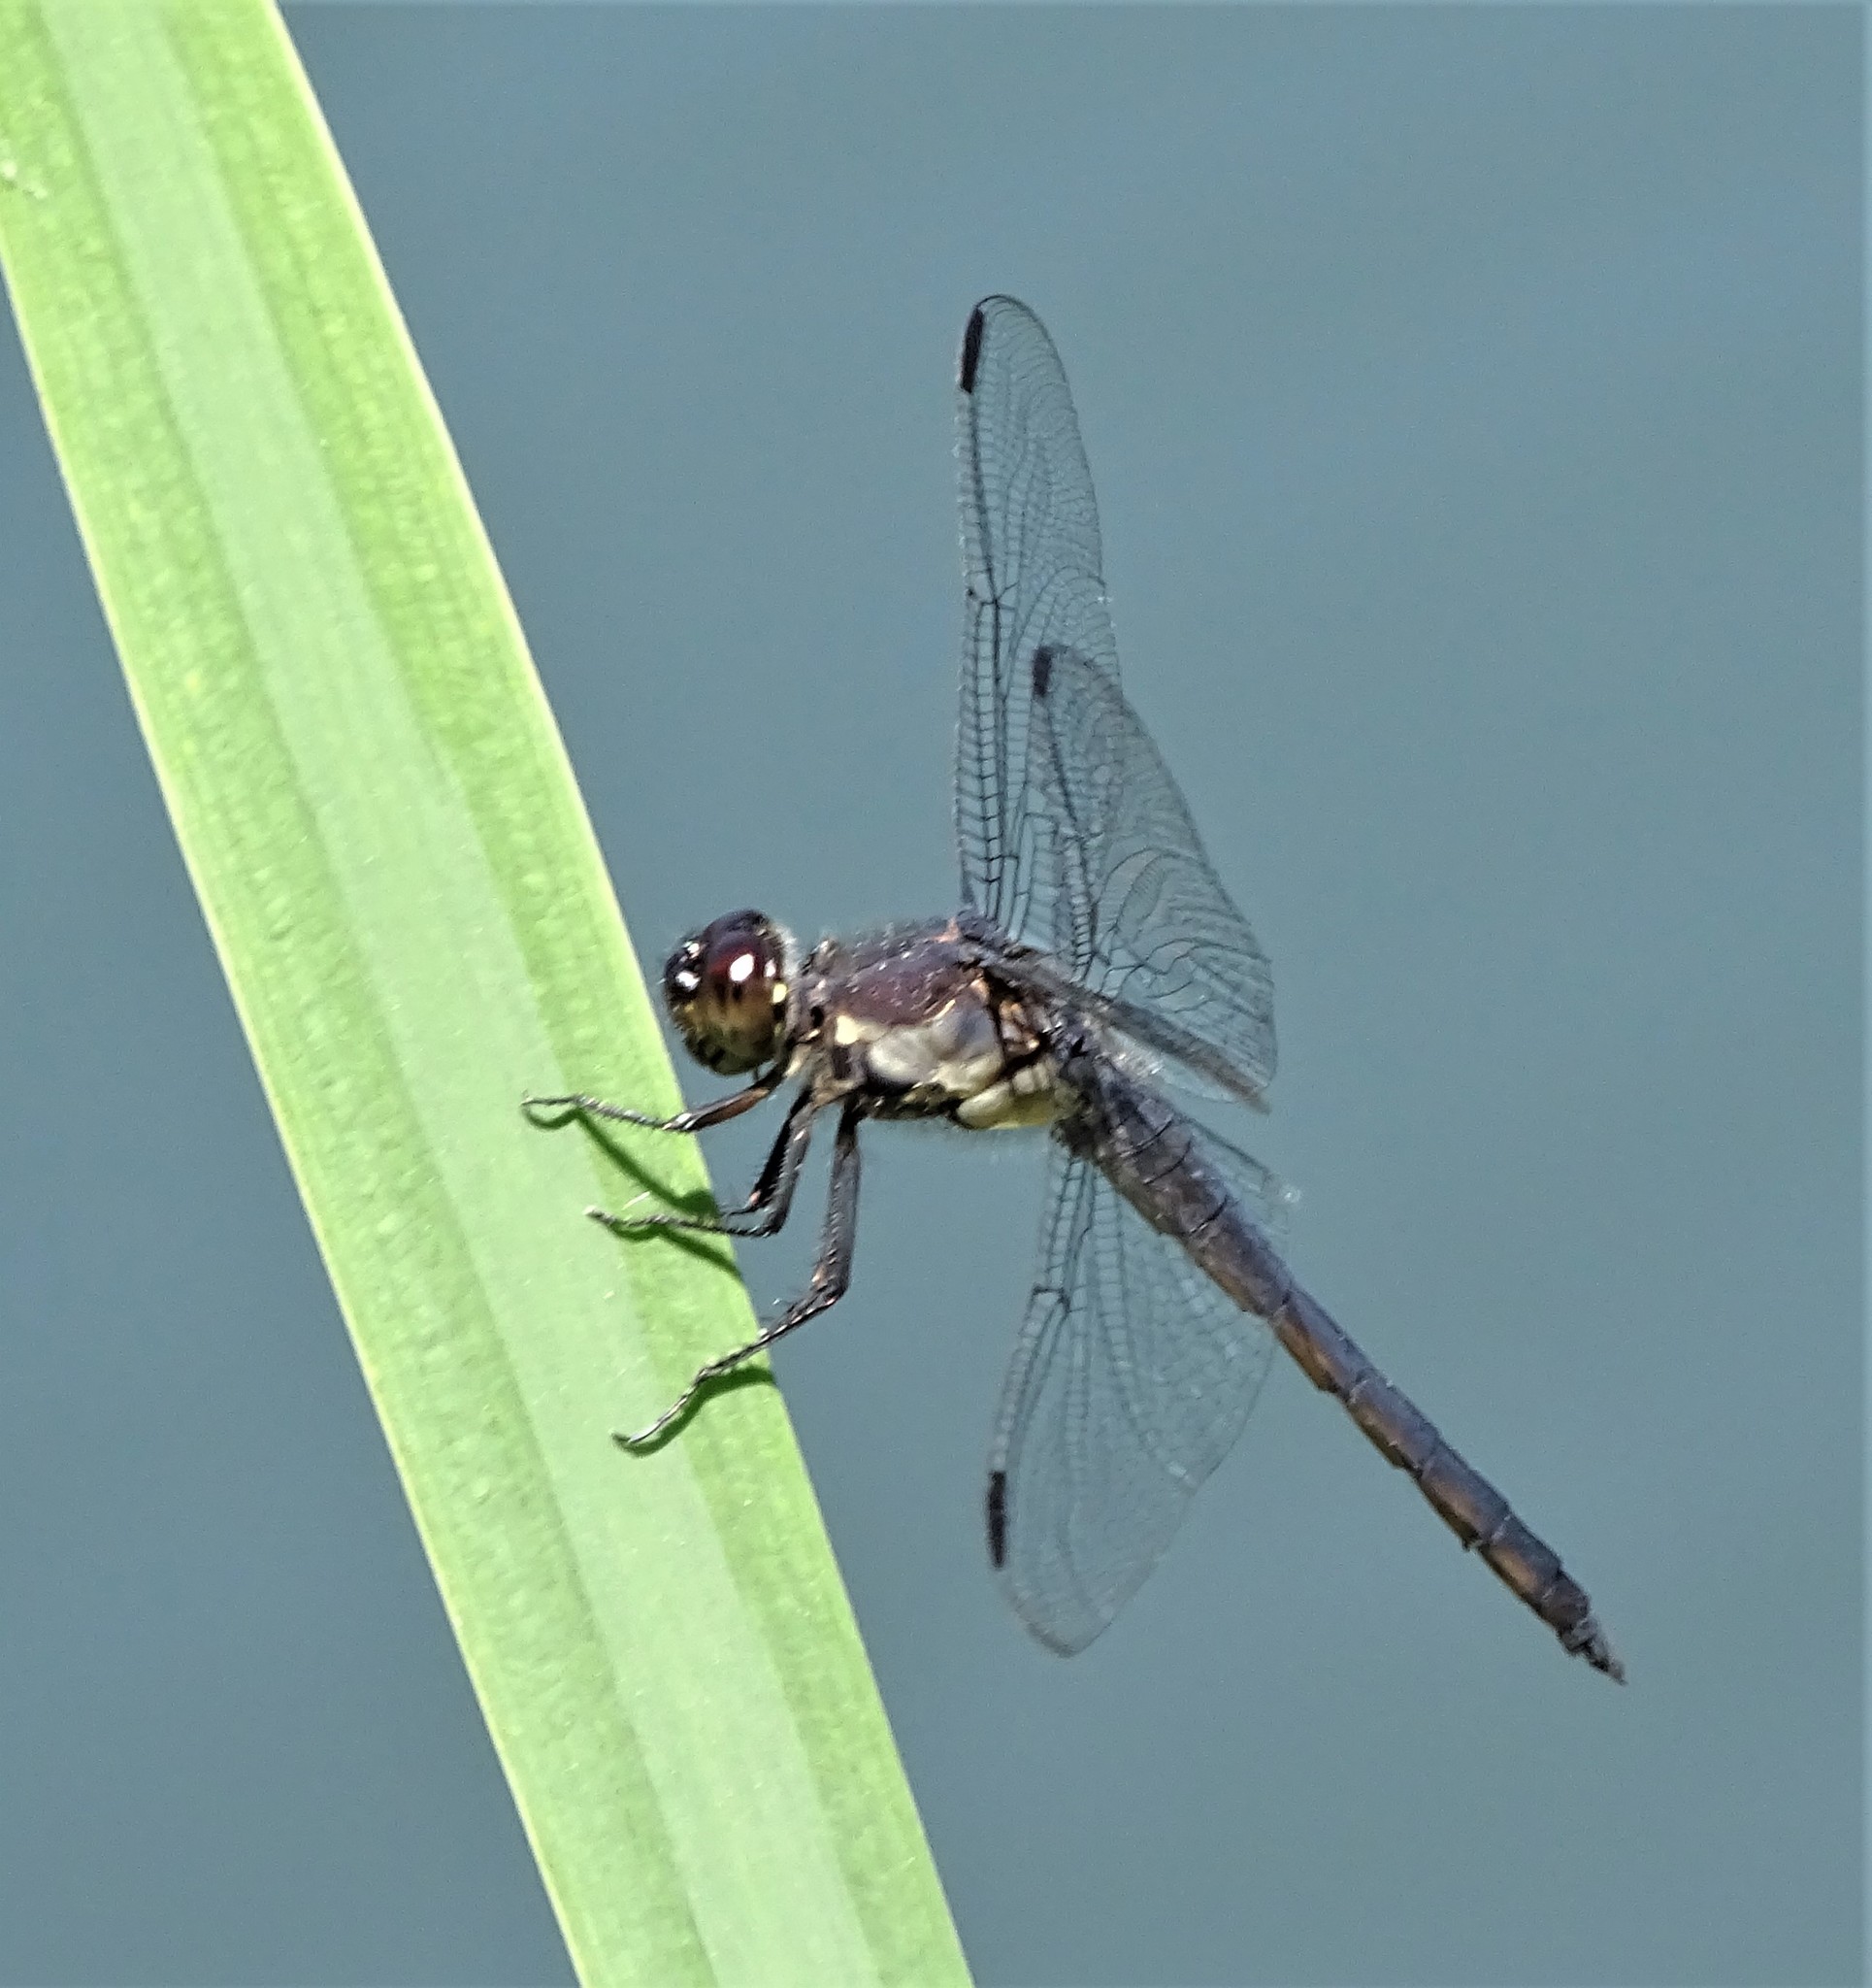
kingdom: Animalia
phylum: Arthropoda
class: Insecta
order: Odonata
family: Libellulidae
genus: Libellula
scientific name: Libellula incesta
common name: Slaty skimmer
